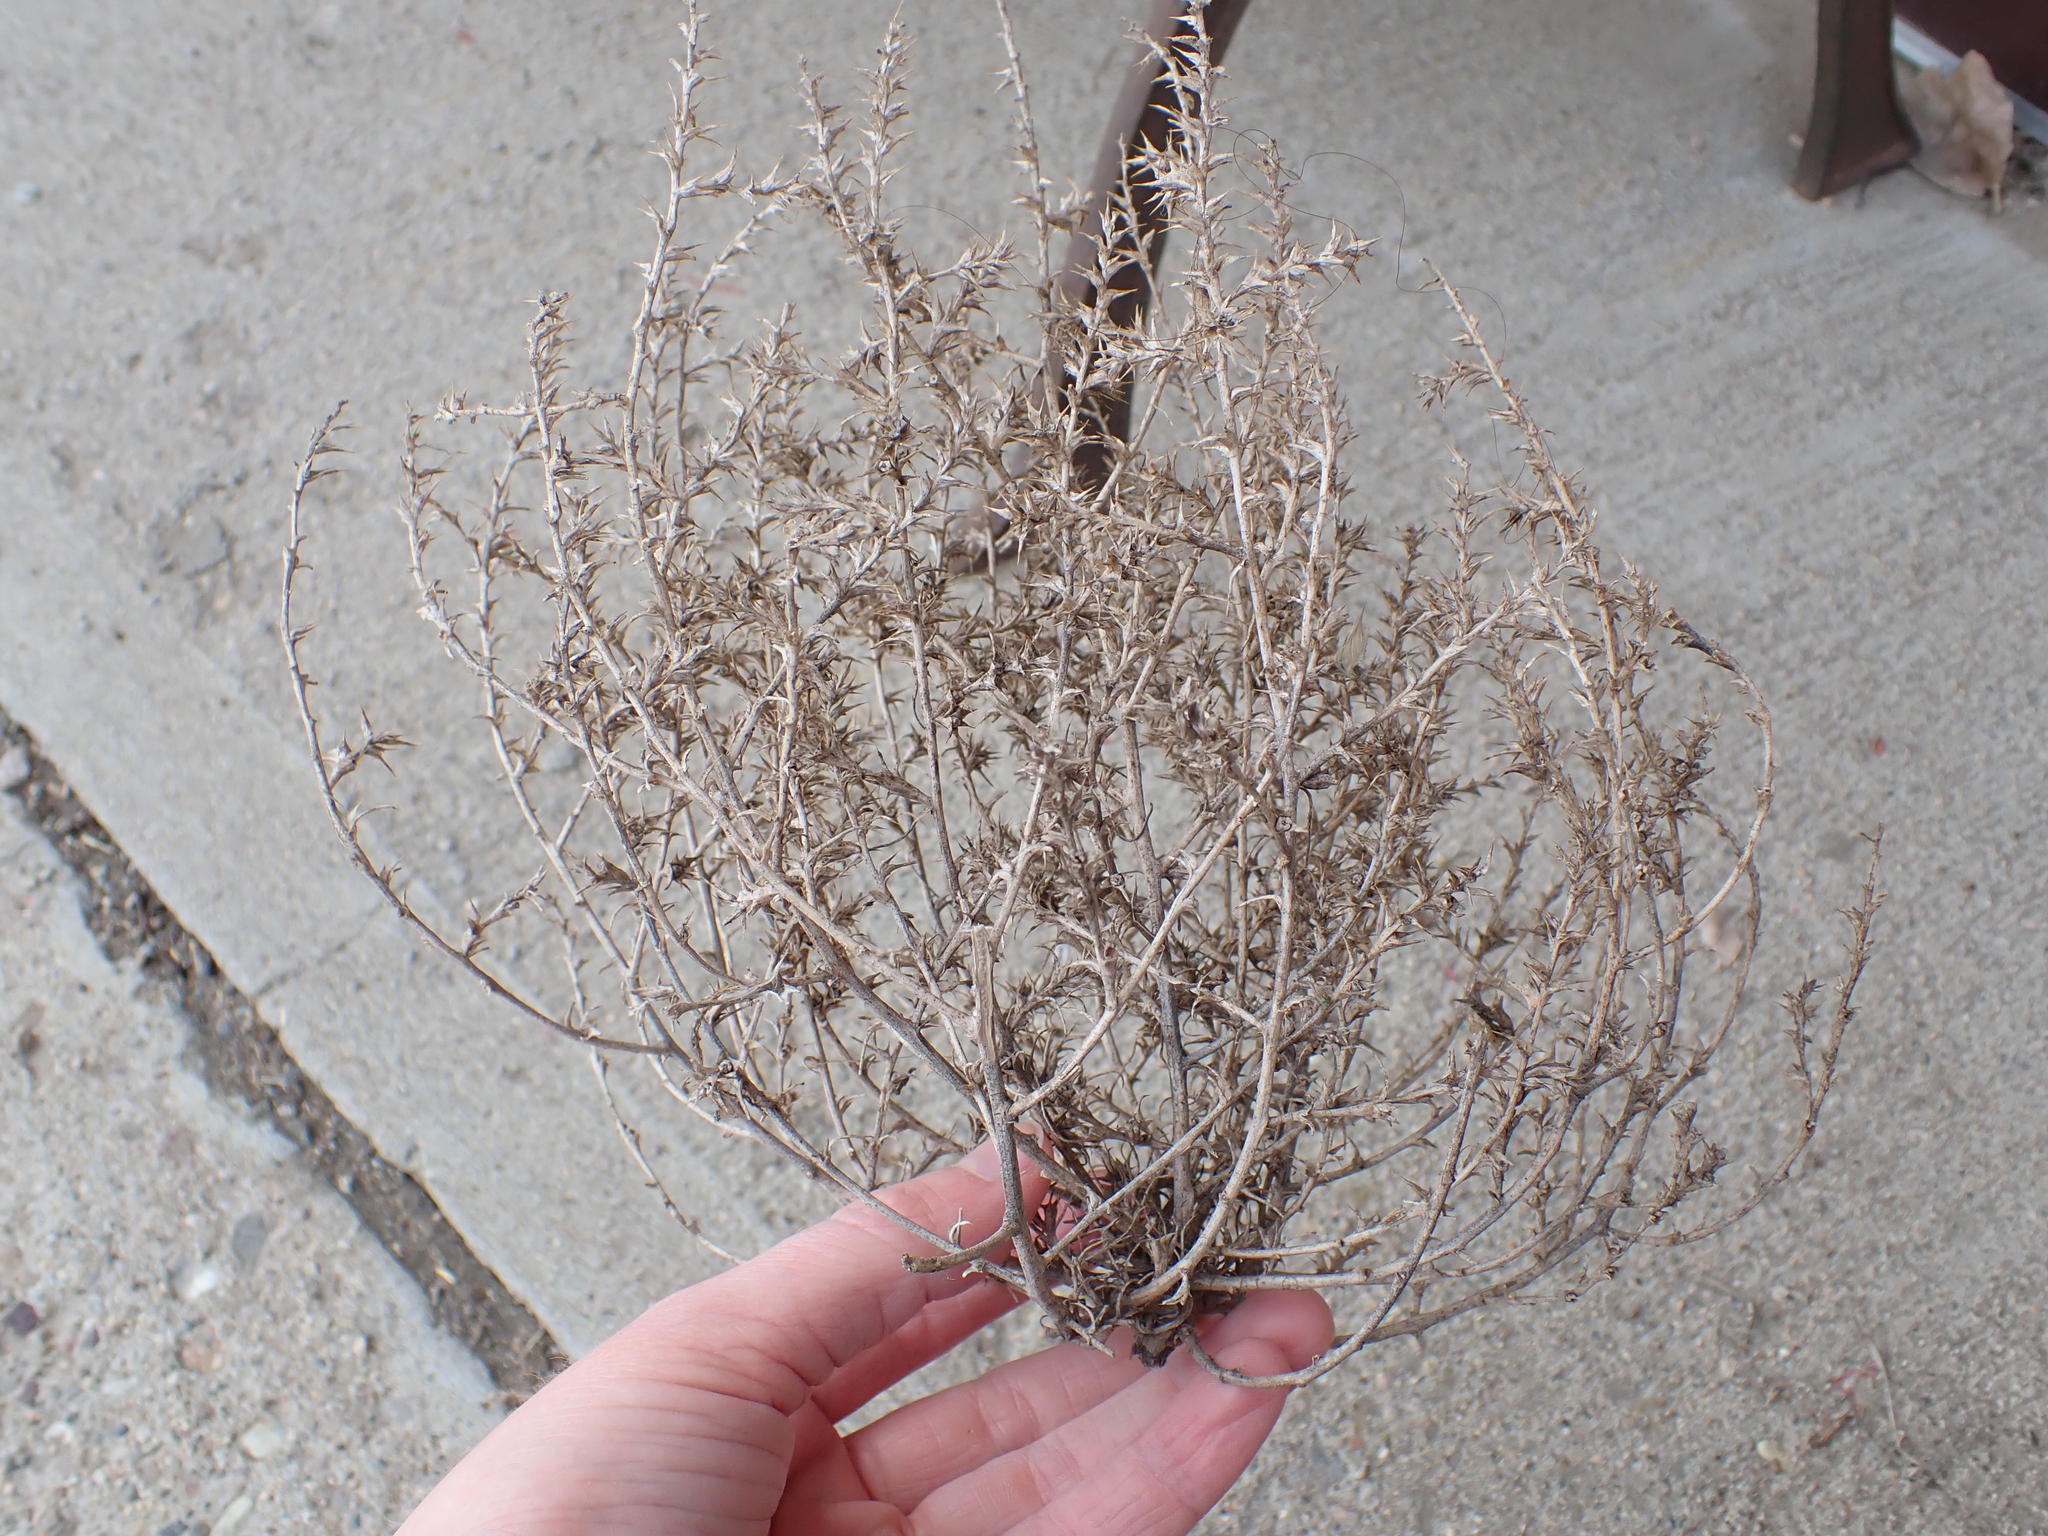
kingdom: Plantae
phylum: Tracheophyta
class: Magnoliopsida
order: Caryophyllales
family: Amaranthaceae
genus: Salsola
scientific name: Salsola tragus
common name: Prickly russian thistle
